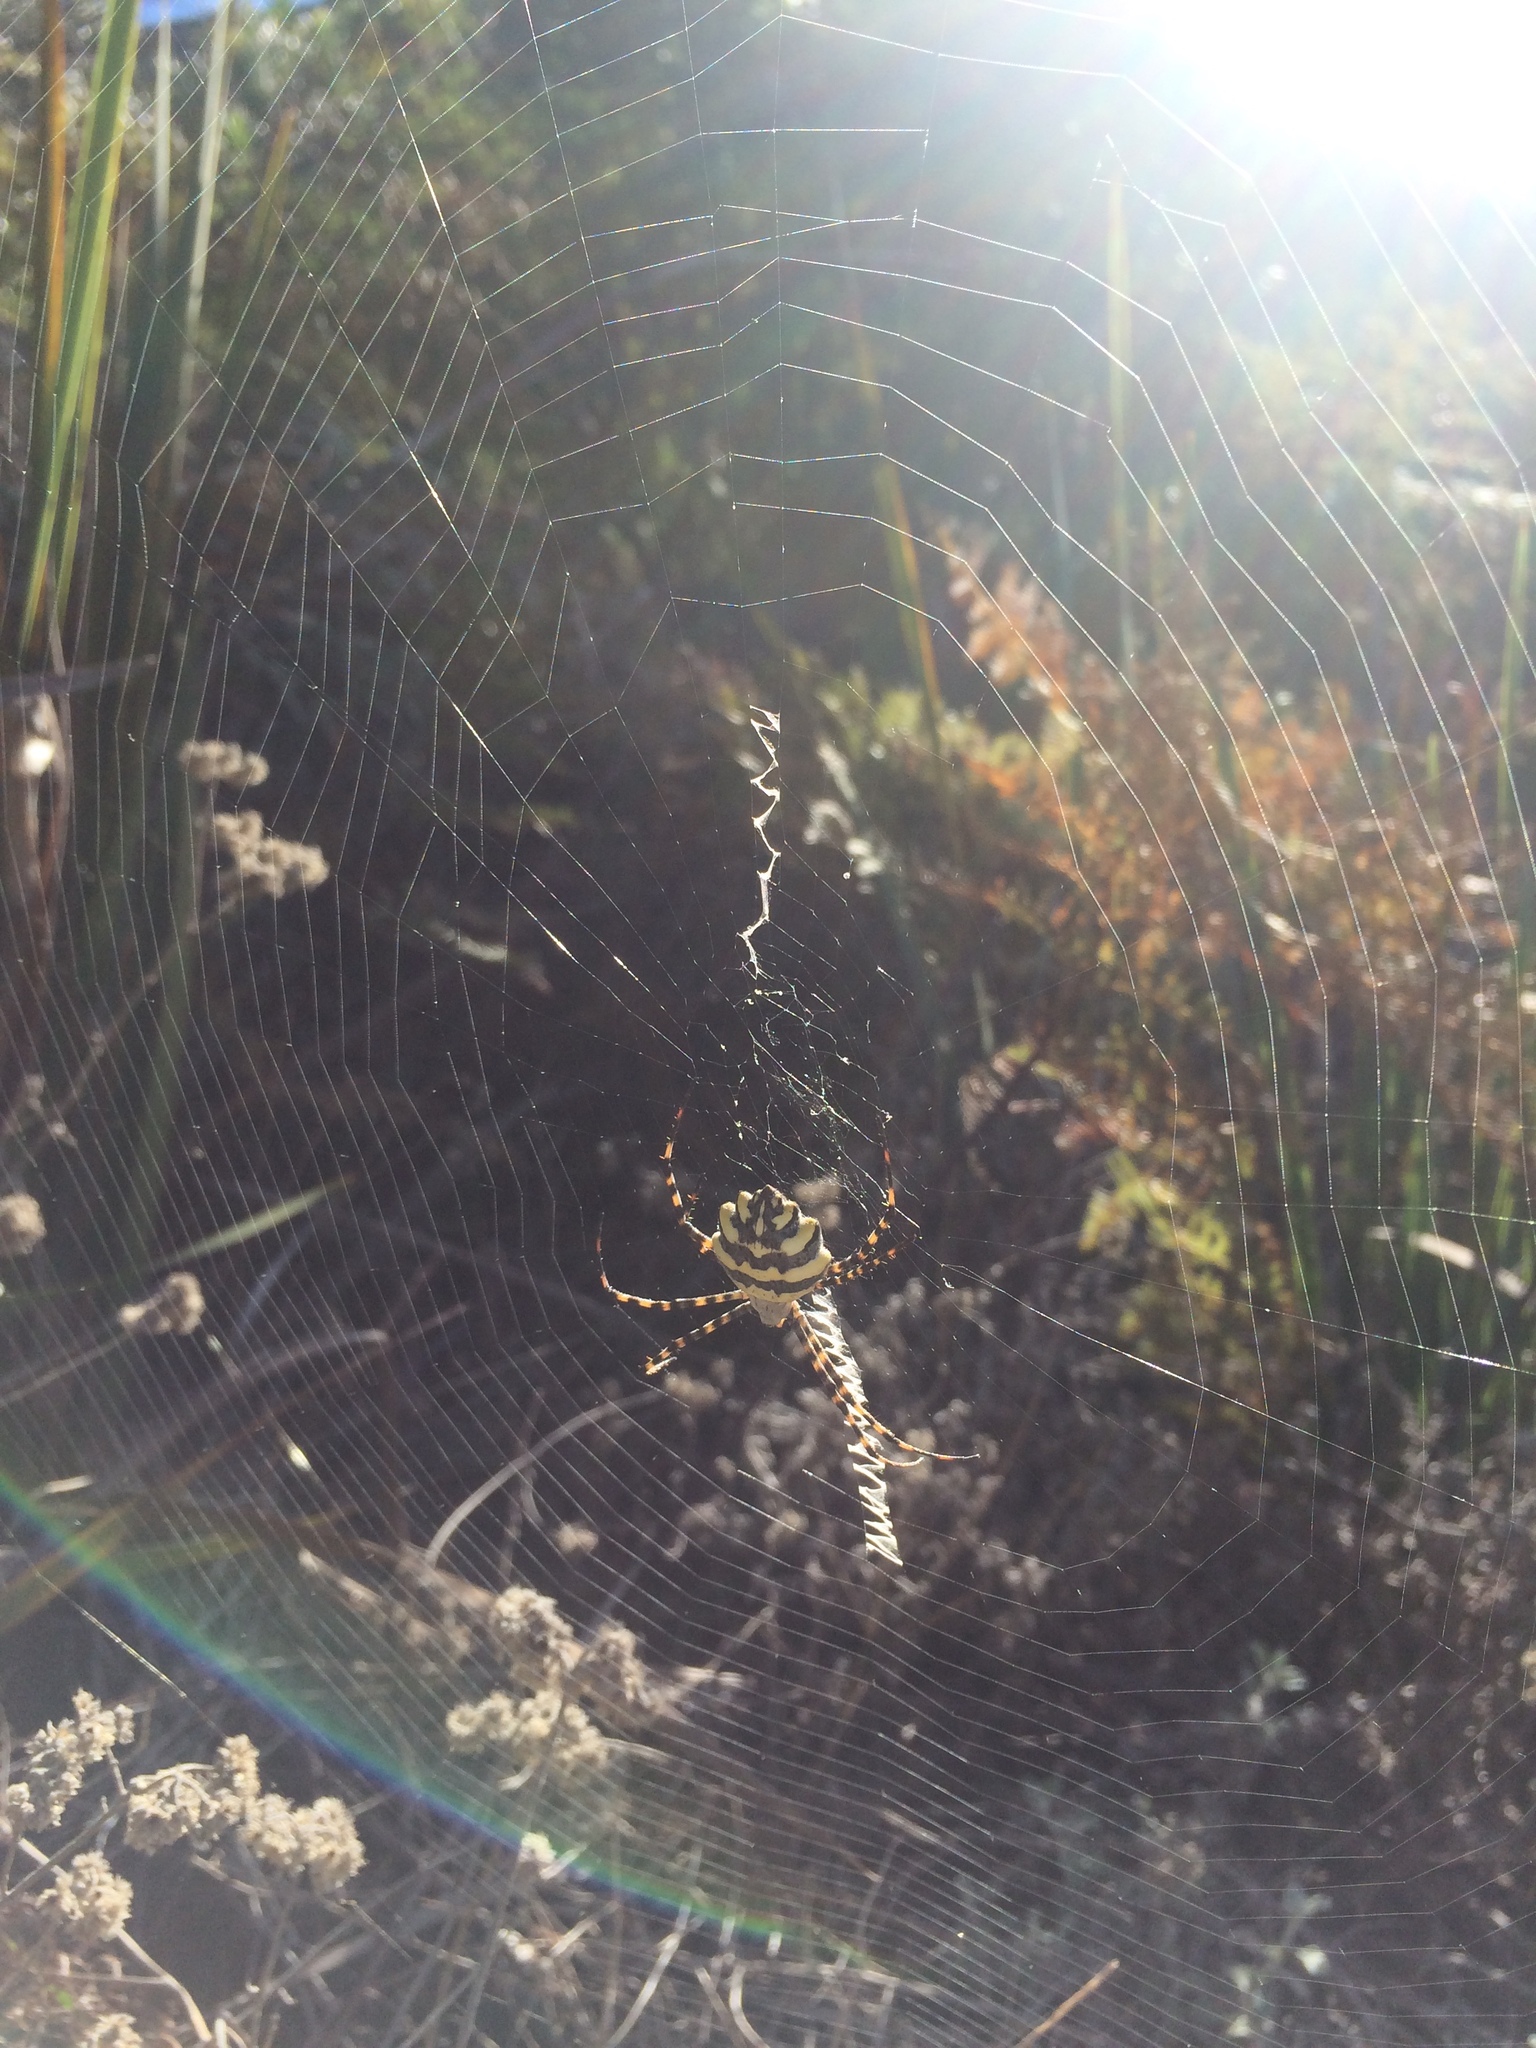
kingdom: Plantae
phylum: Tracheophyta
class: Liliopsida
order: Asparagales
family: Iridaceae
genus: Chasmanthe
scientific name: Chasmanthe aethiopica
